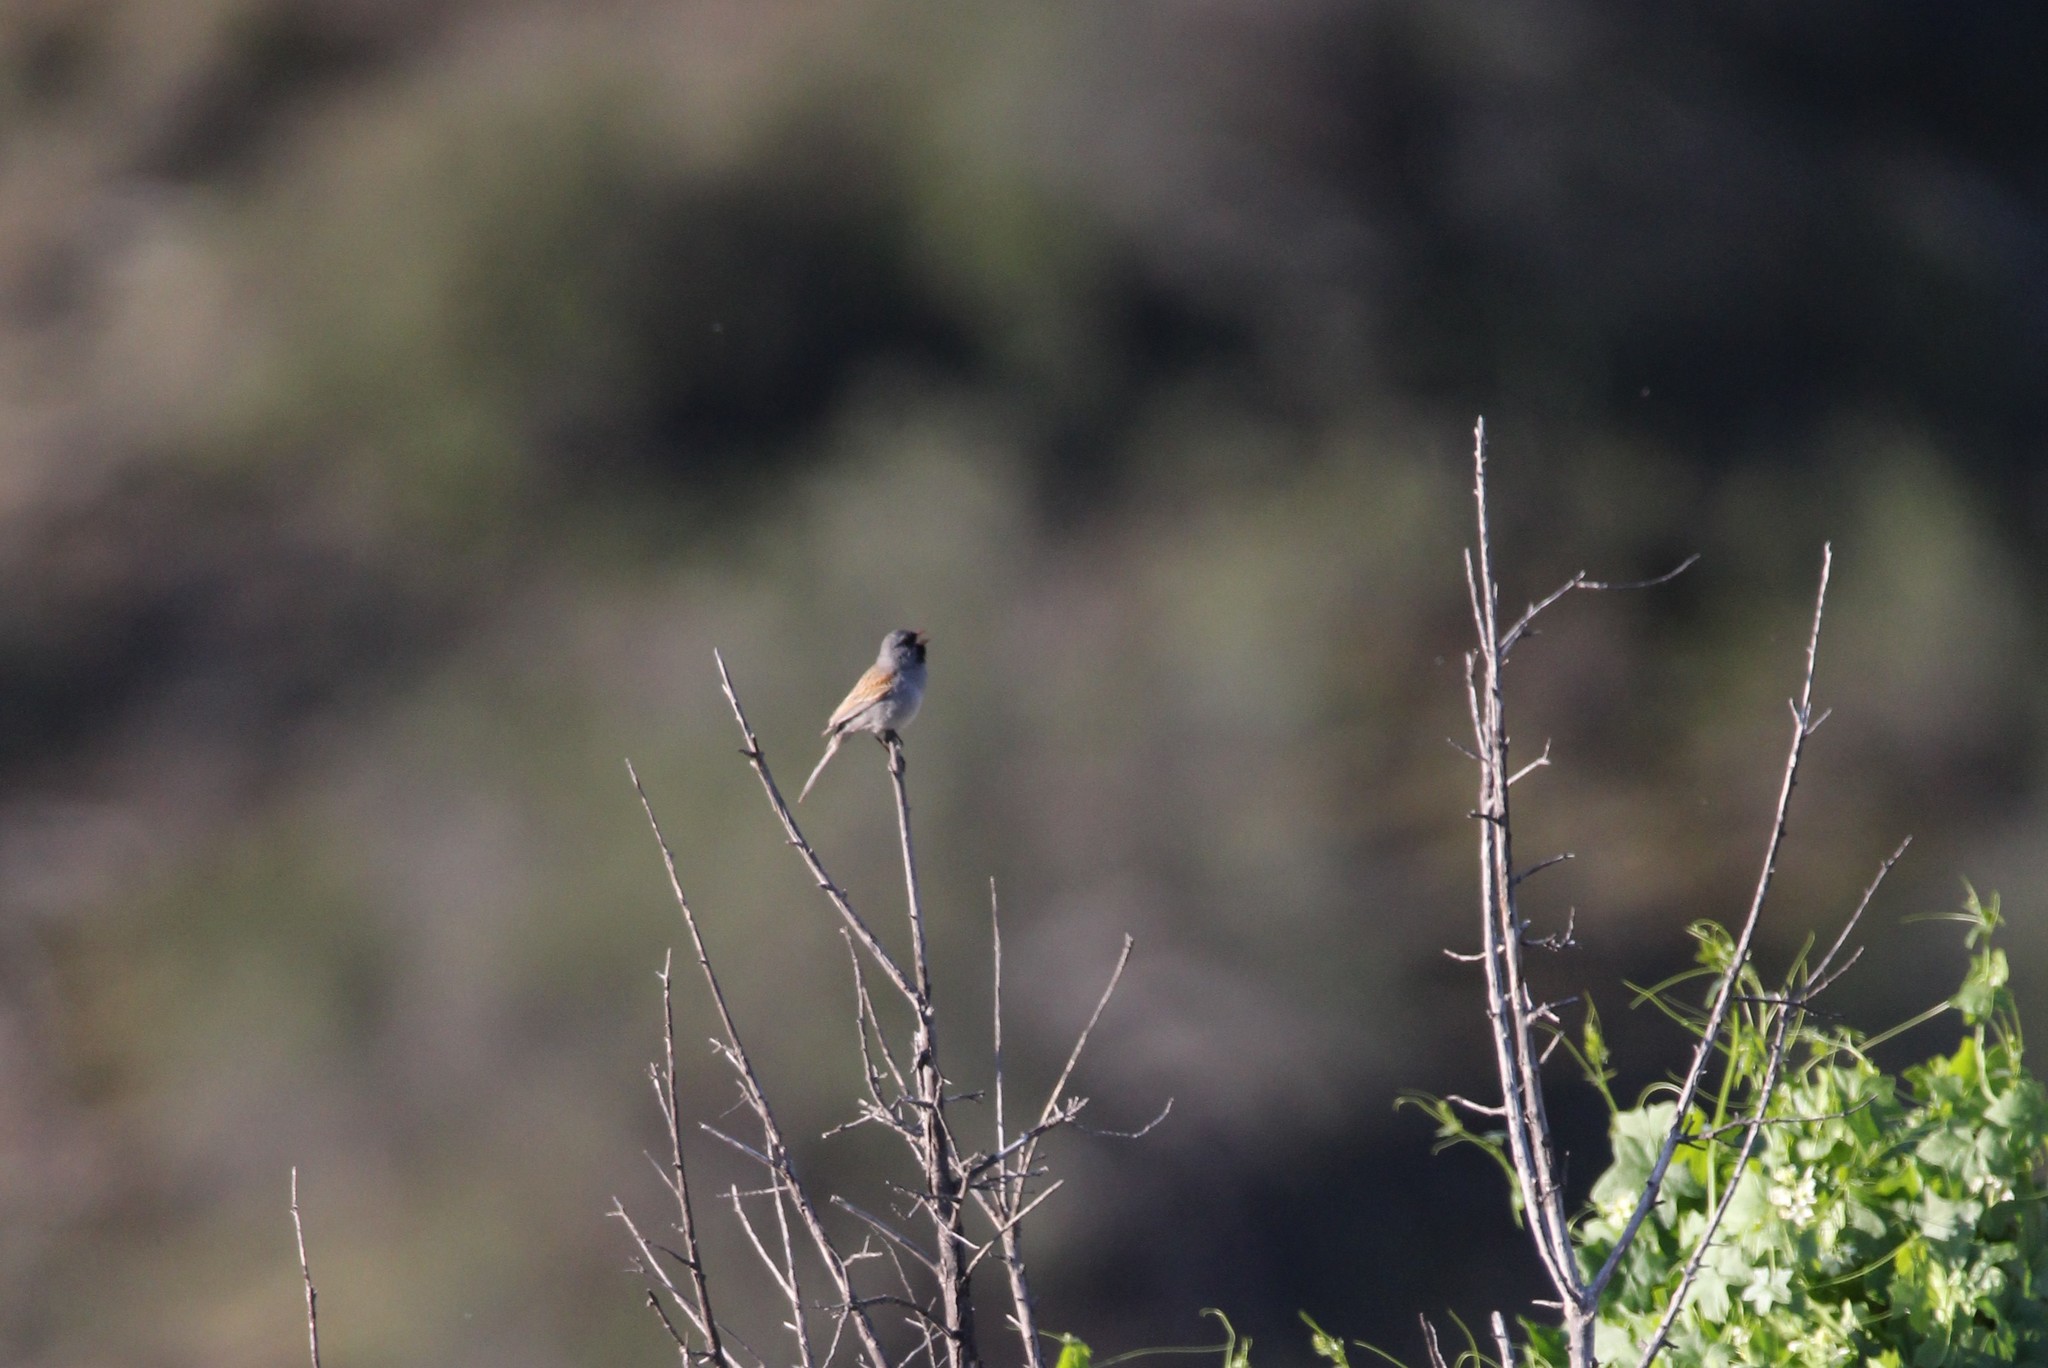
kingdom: Animalia
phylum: Chordata
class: Aves
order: Passeriformes
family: Passerellidae
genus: Spizella
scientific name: Spizella atrogularis
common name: Black-chinned sparrow
